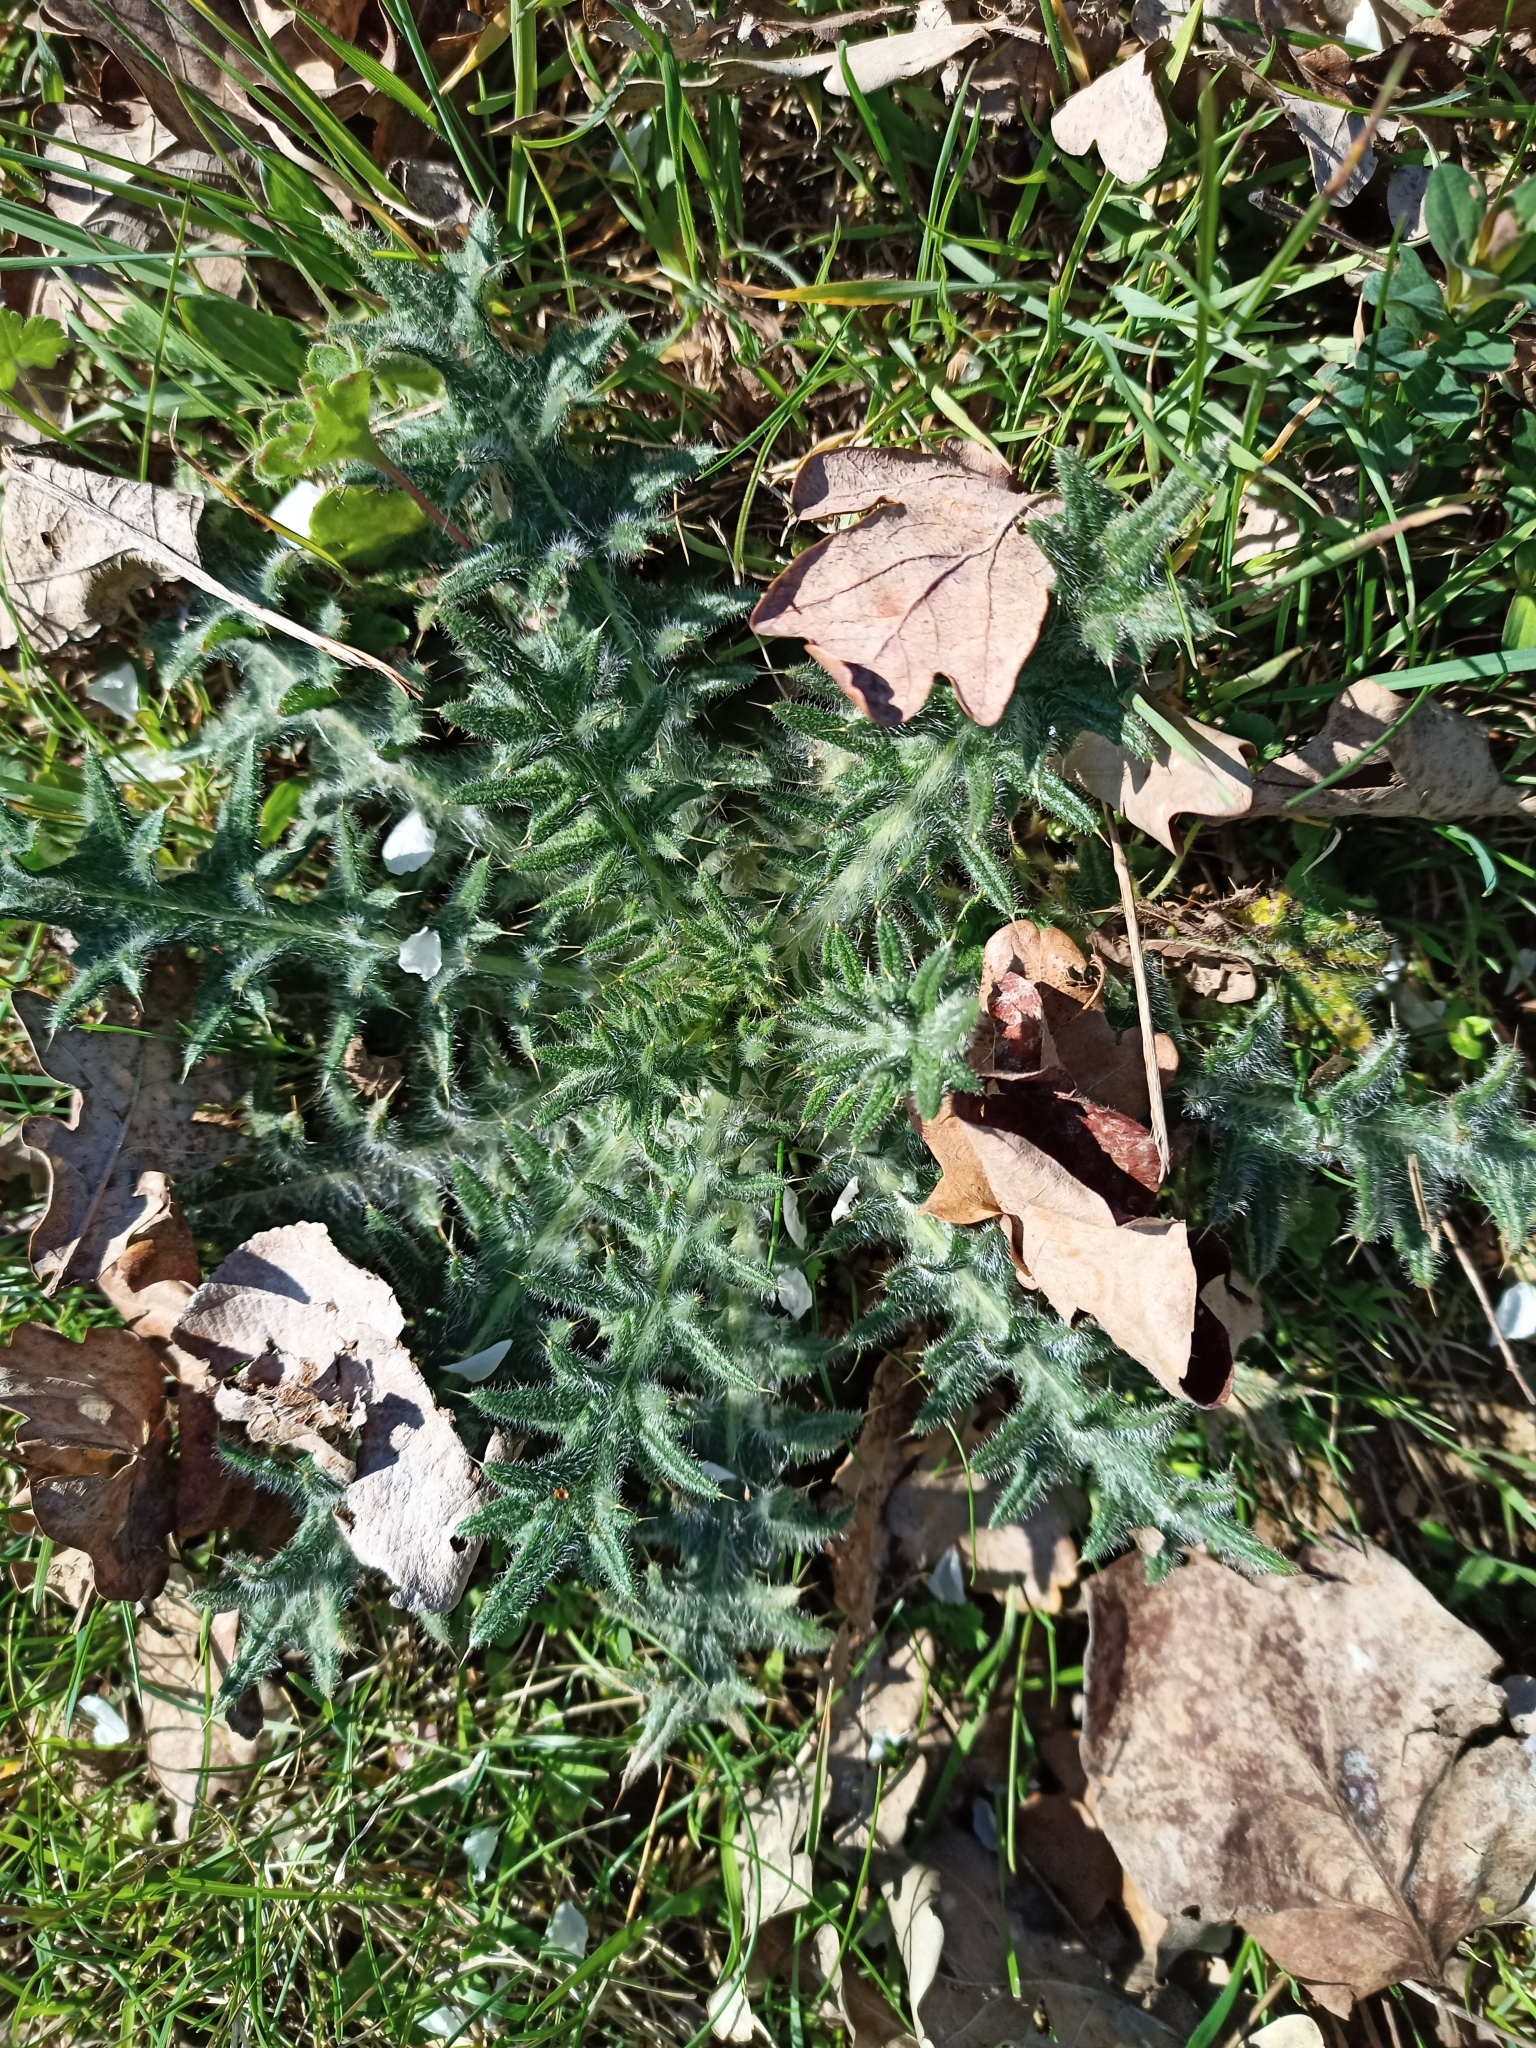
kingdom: Plantae
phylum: Tracheophyta
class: Magnoliopsida
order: Asterales
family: Asteraceae
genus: Cirsium
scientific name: Cirsium vulgare
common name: Bull thistle
